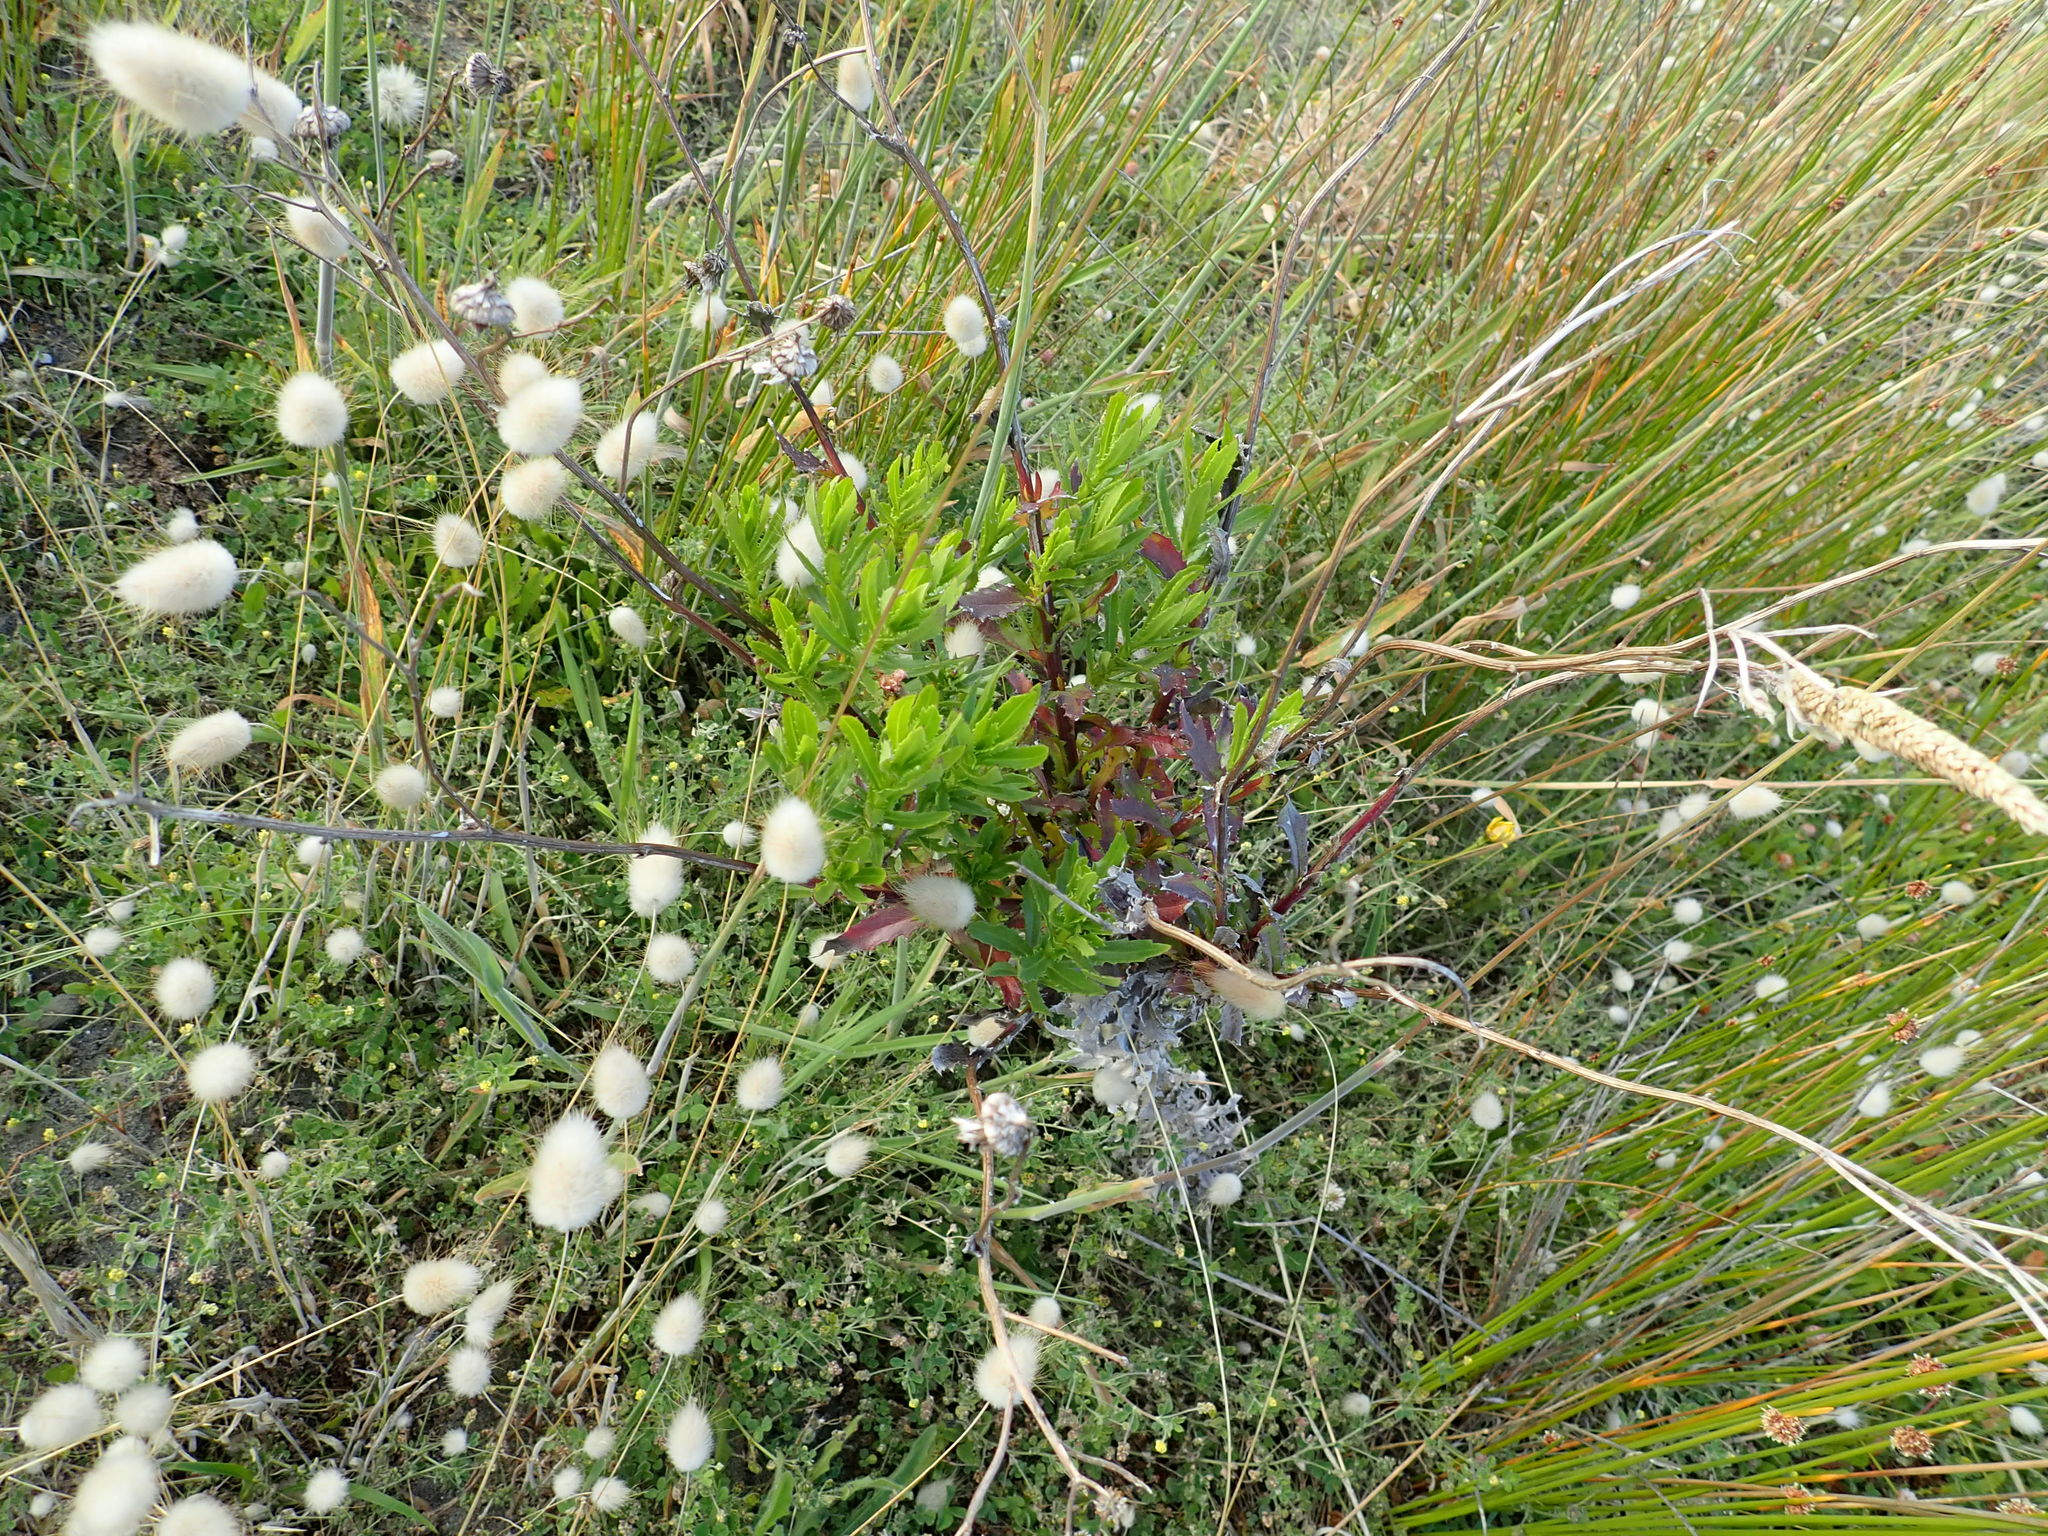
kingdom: Plantae
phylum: Tracheophyta
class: Magnoliopsida
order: Asterales
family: Asteraceae
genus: Senecio
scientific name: Senecio glastifolius
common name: Woad-leaved ragwort
